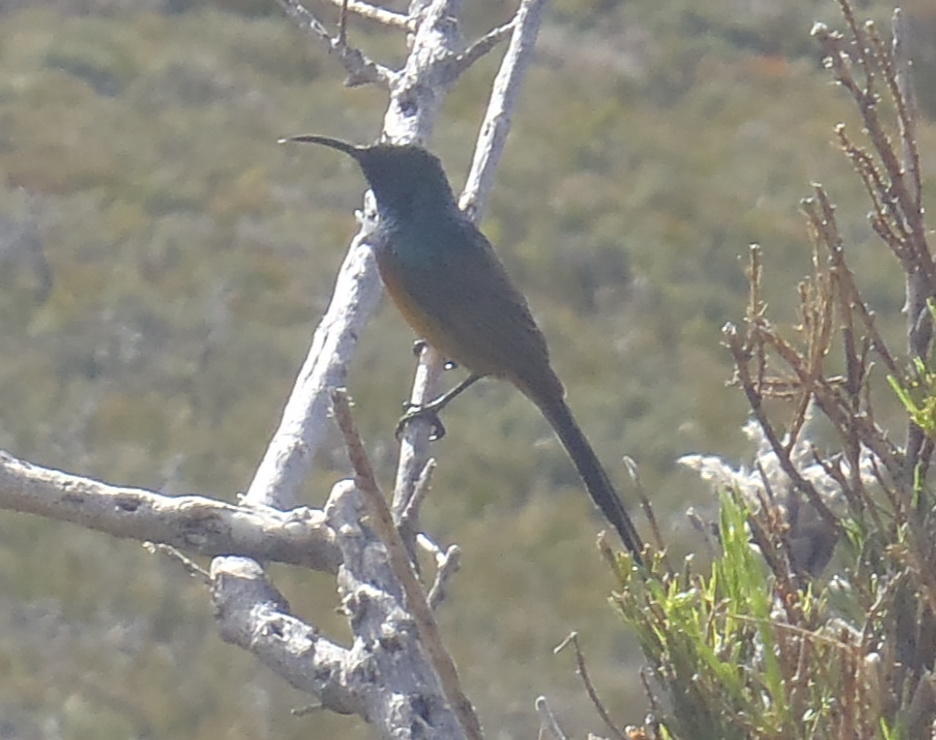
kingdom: Animalia
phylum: Chordata
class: Aves
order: Passeriformes
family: Nectariniidae
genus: Anthobaphes
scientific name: Anthobaphes violacea
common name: Orange-breasted sunbird
